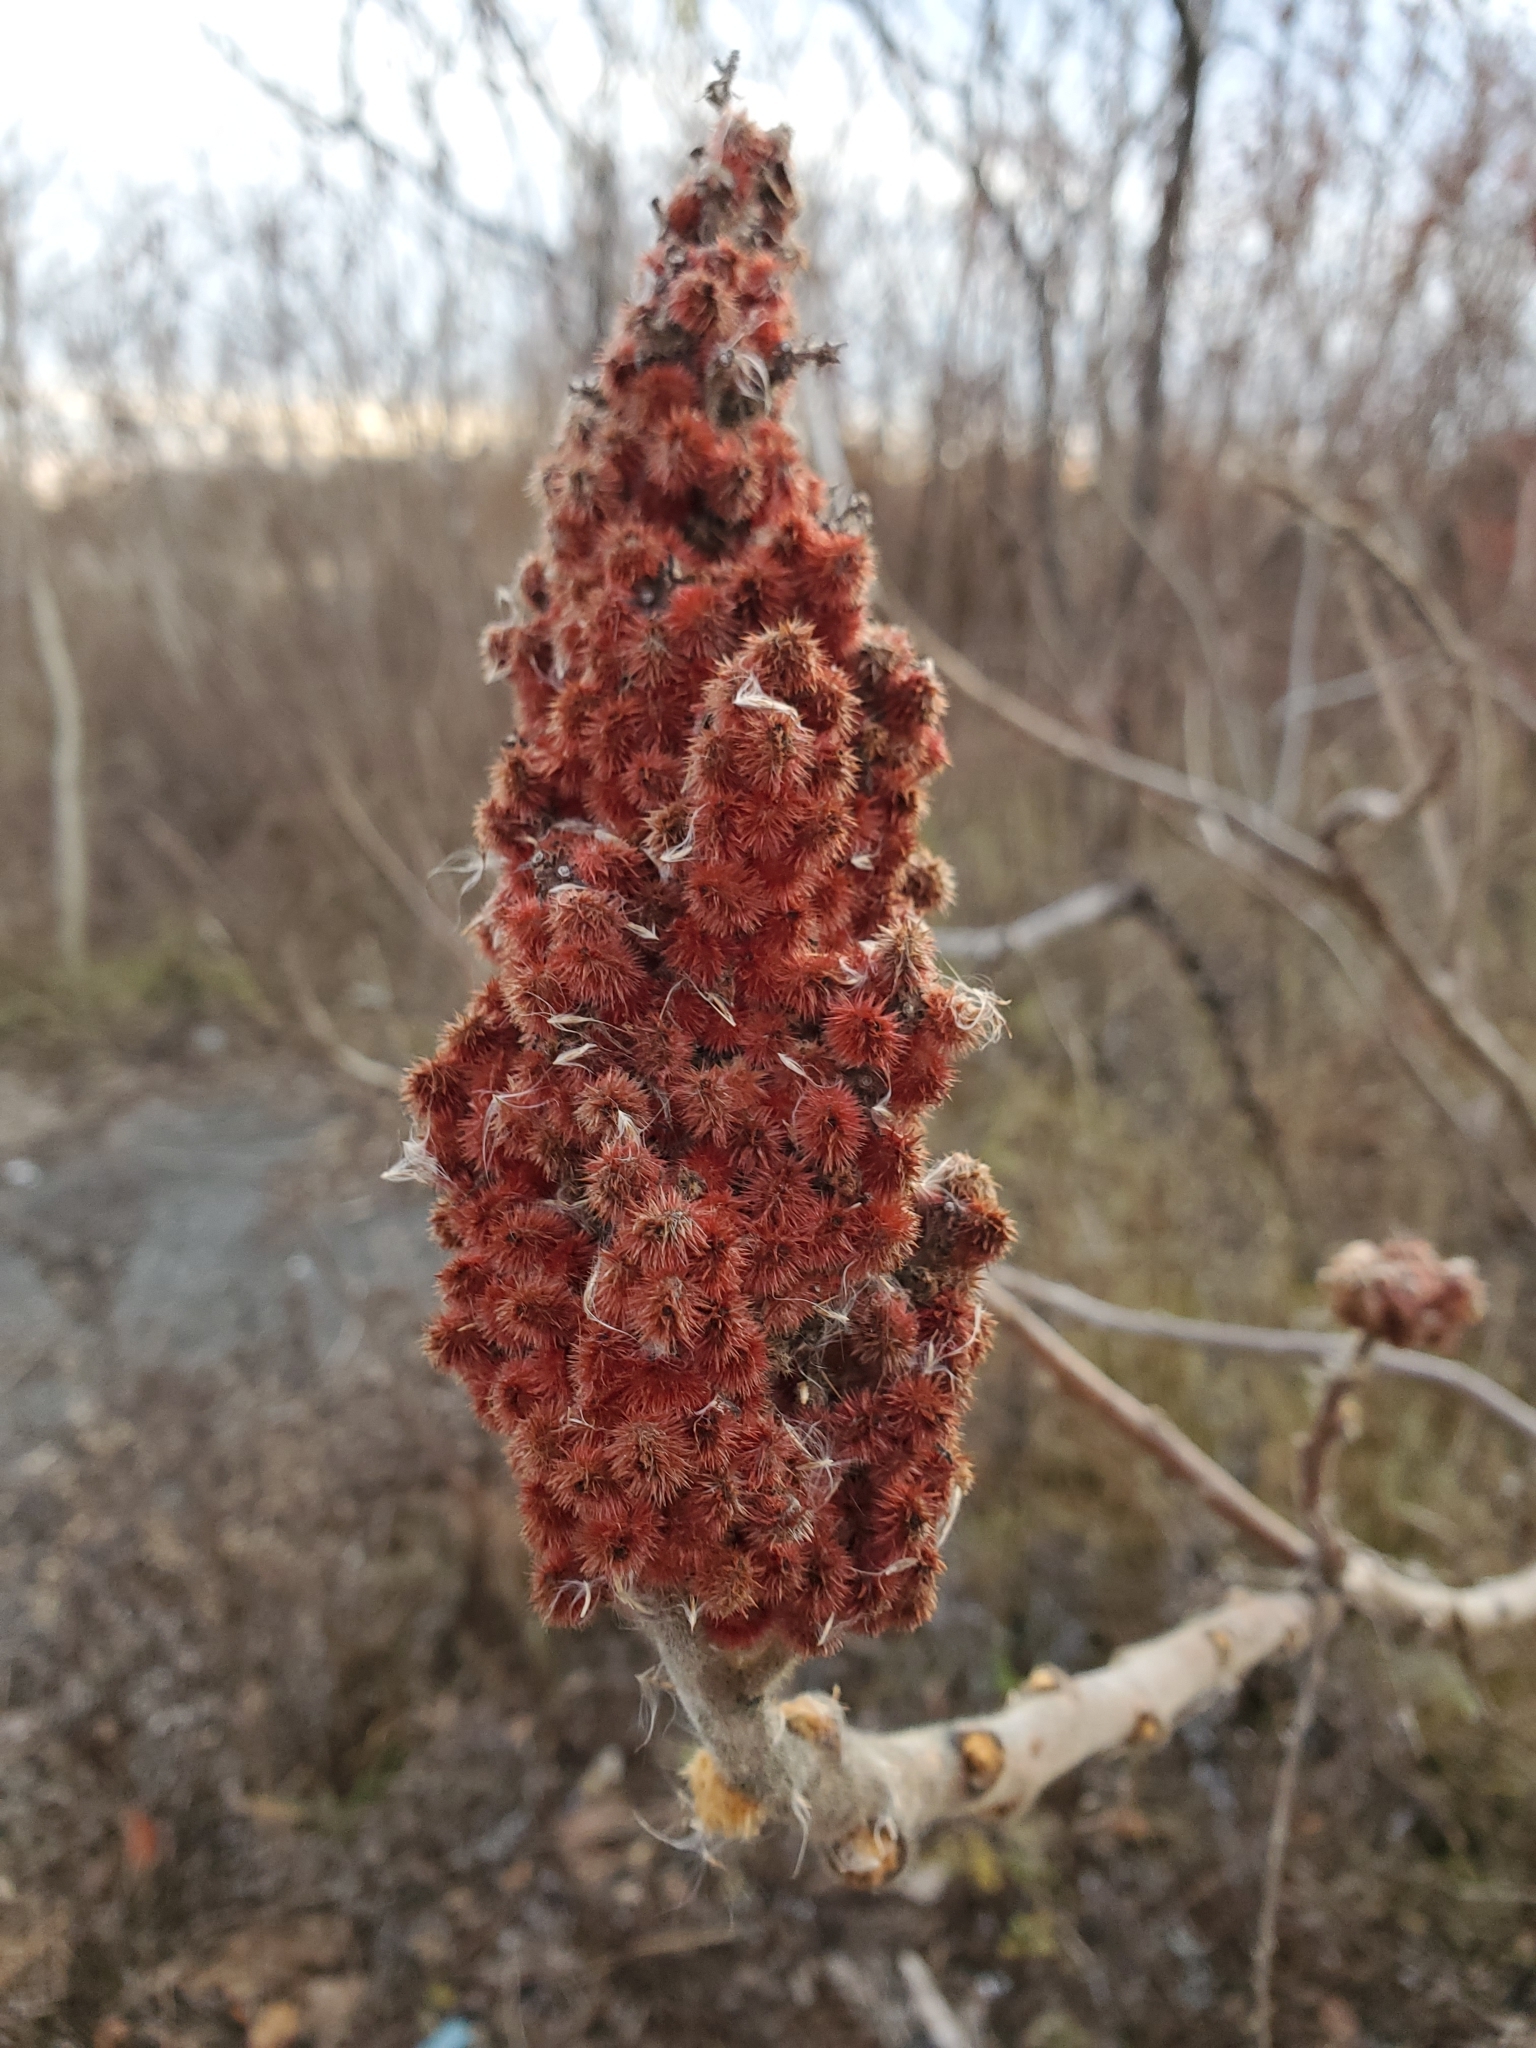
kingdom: Plantae
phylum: Tracheophyta
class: Magnoliopsida
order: Sapindales
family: Anacardiaceae
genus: Rhus
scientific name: Rhus typhina
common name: Staghorn sumac
